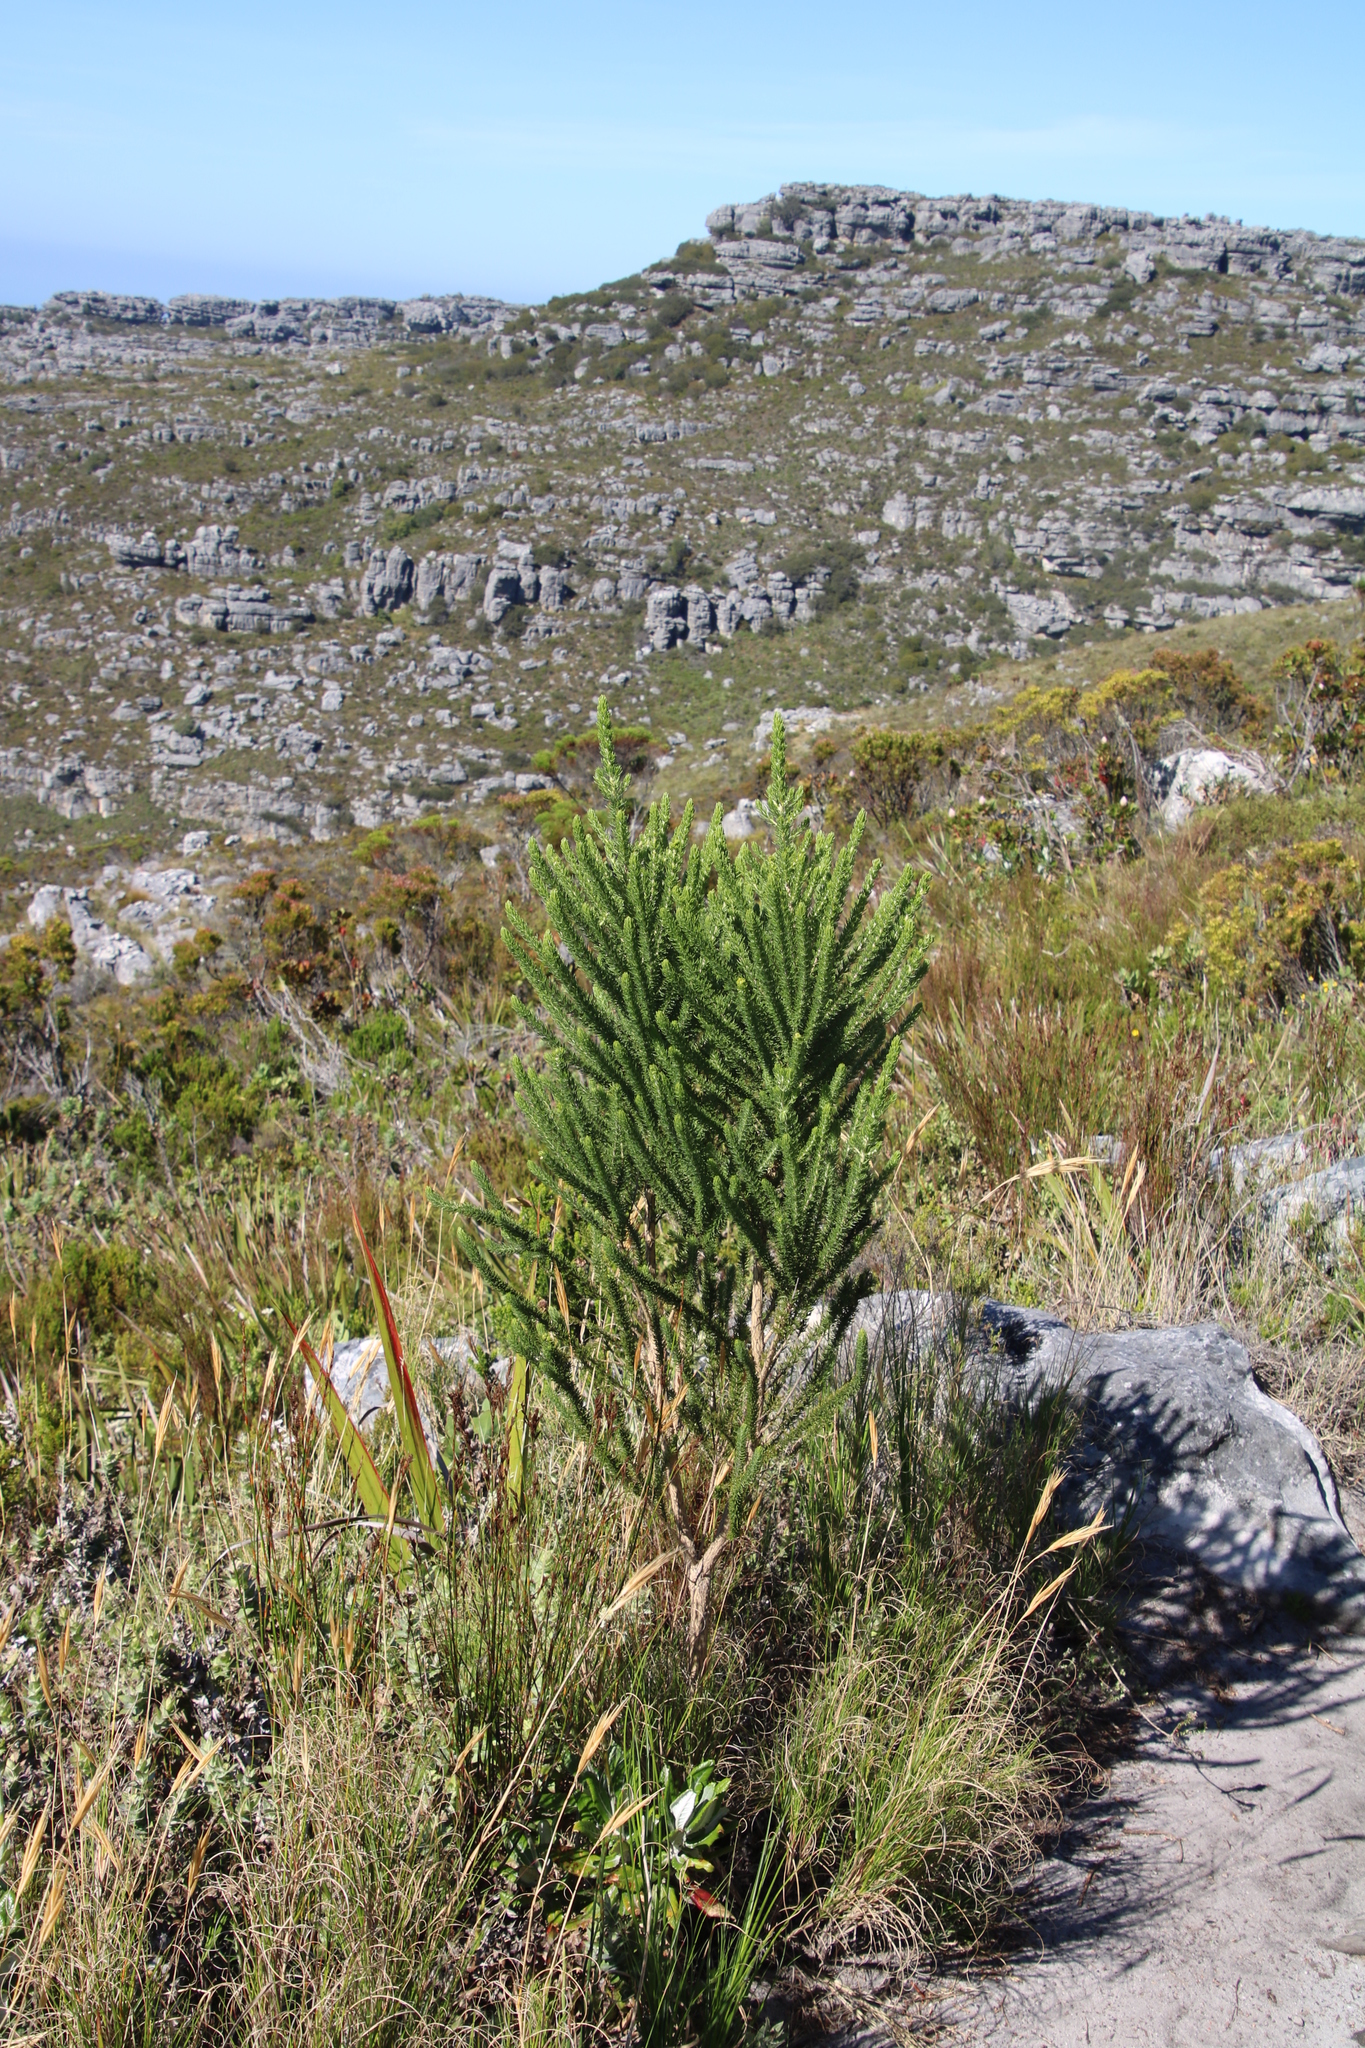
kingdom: Plantae
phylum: Tracheophyta
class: Magnoliopsida
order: Fabales
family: Fabaceae
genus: Aspalathus
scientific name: Aspalathus capitata
